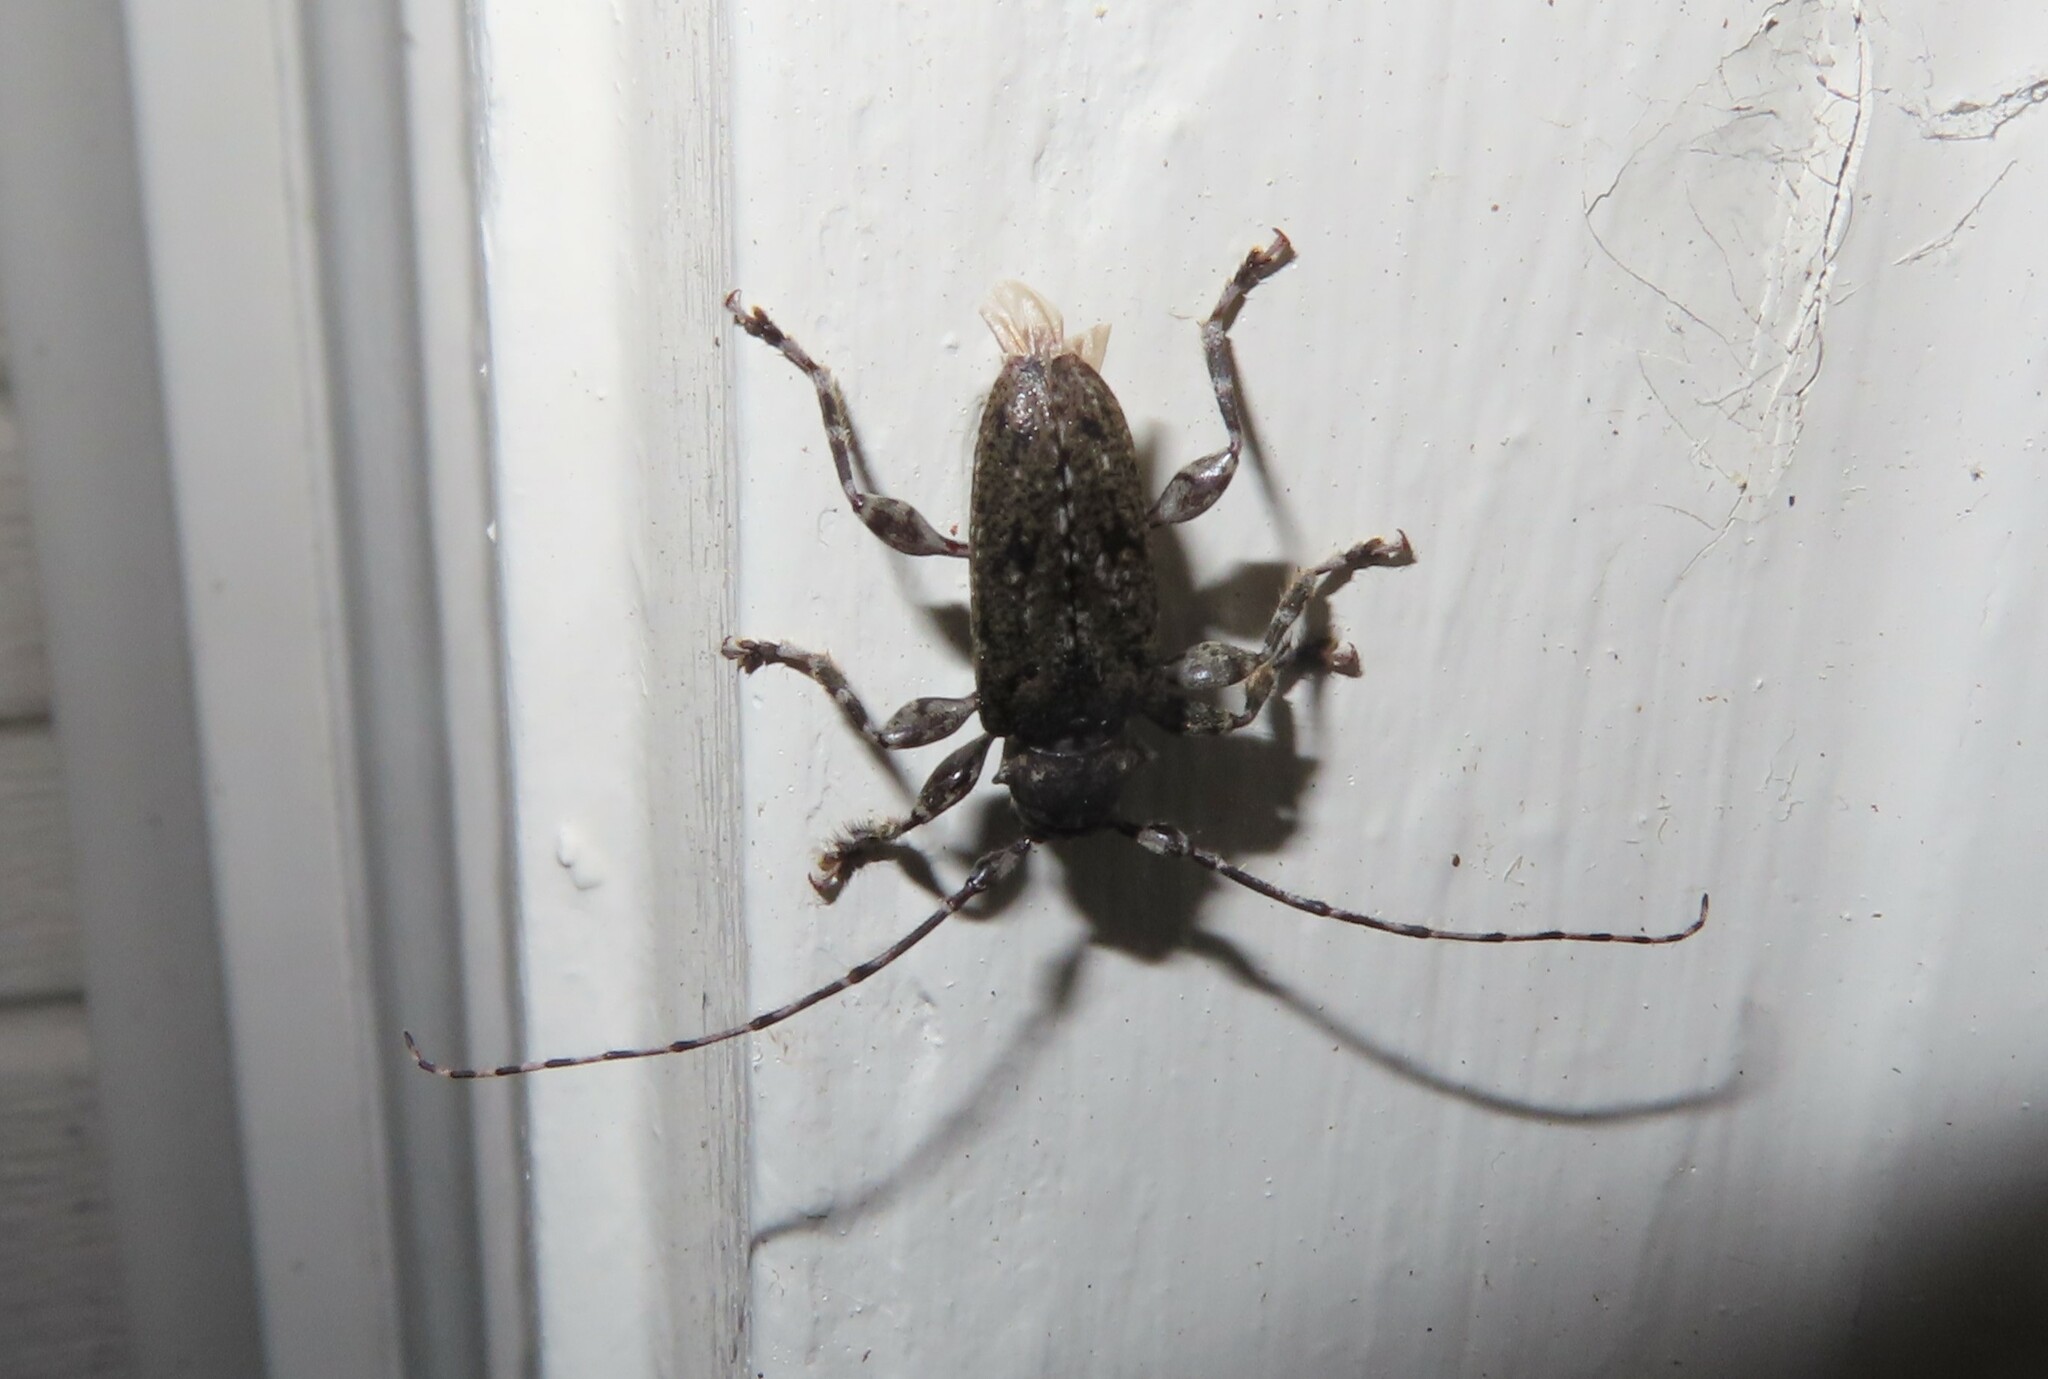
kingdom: Animalia
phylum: Arthropoda
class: Insecta
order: Coleoptera
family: Cerambycidae
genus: Aegomorphus
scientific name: Aegomorphus modestus
